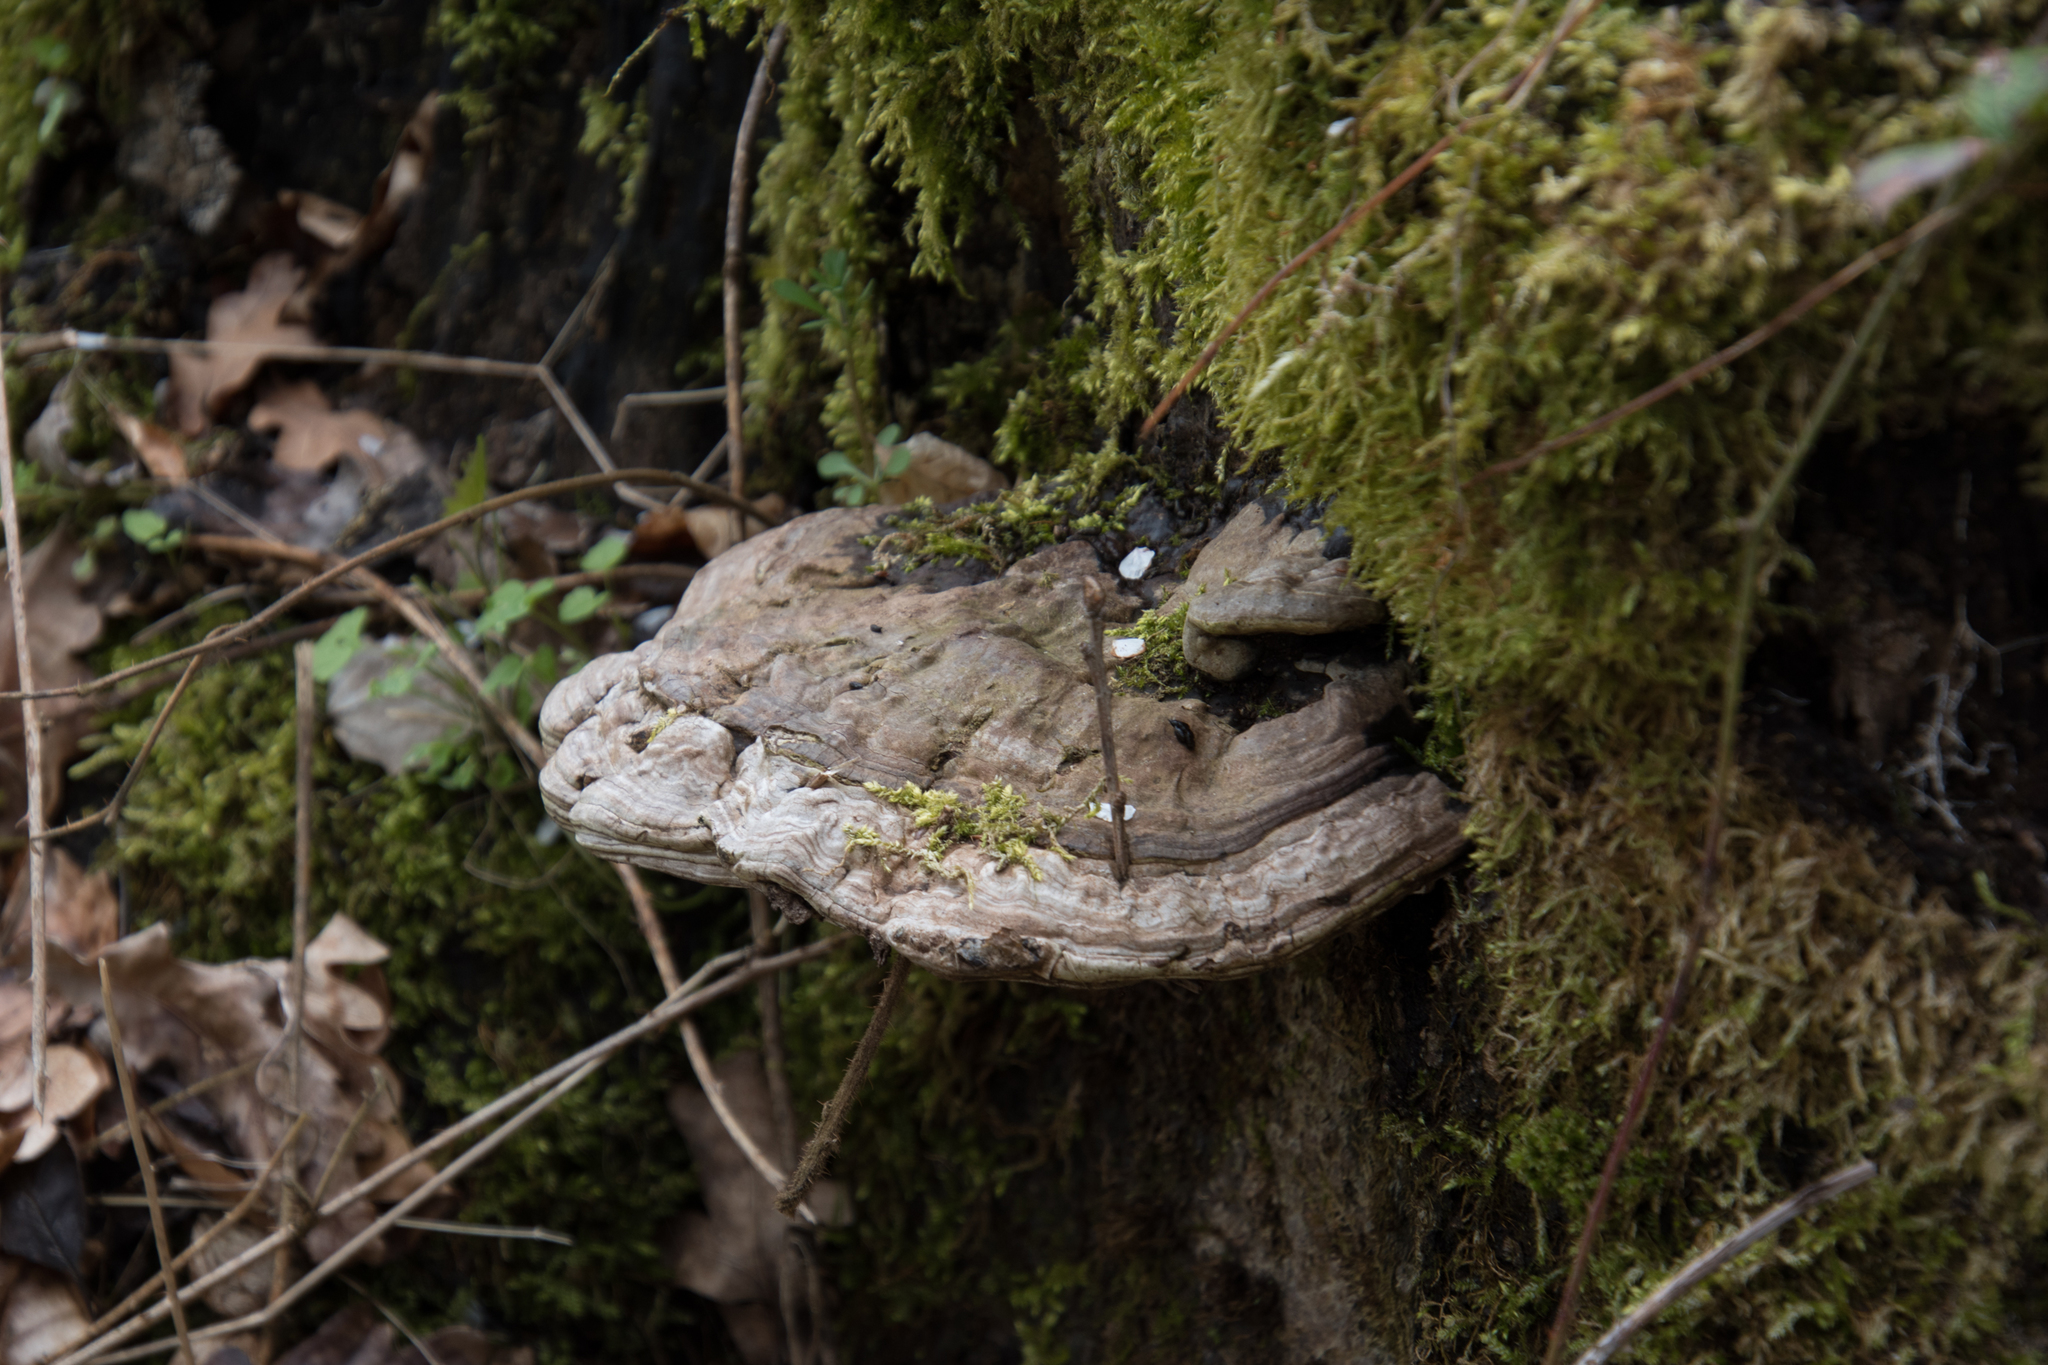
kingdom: Fungi
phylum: Basidiomycota
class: Agaricomycetes
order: Polyporales
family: Polyporaceae
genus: Fomes
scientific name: Fomes fomentarius
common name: Hoof fungus
